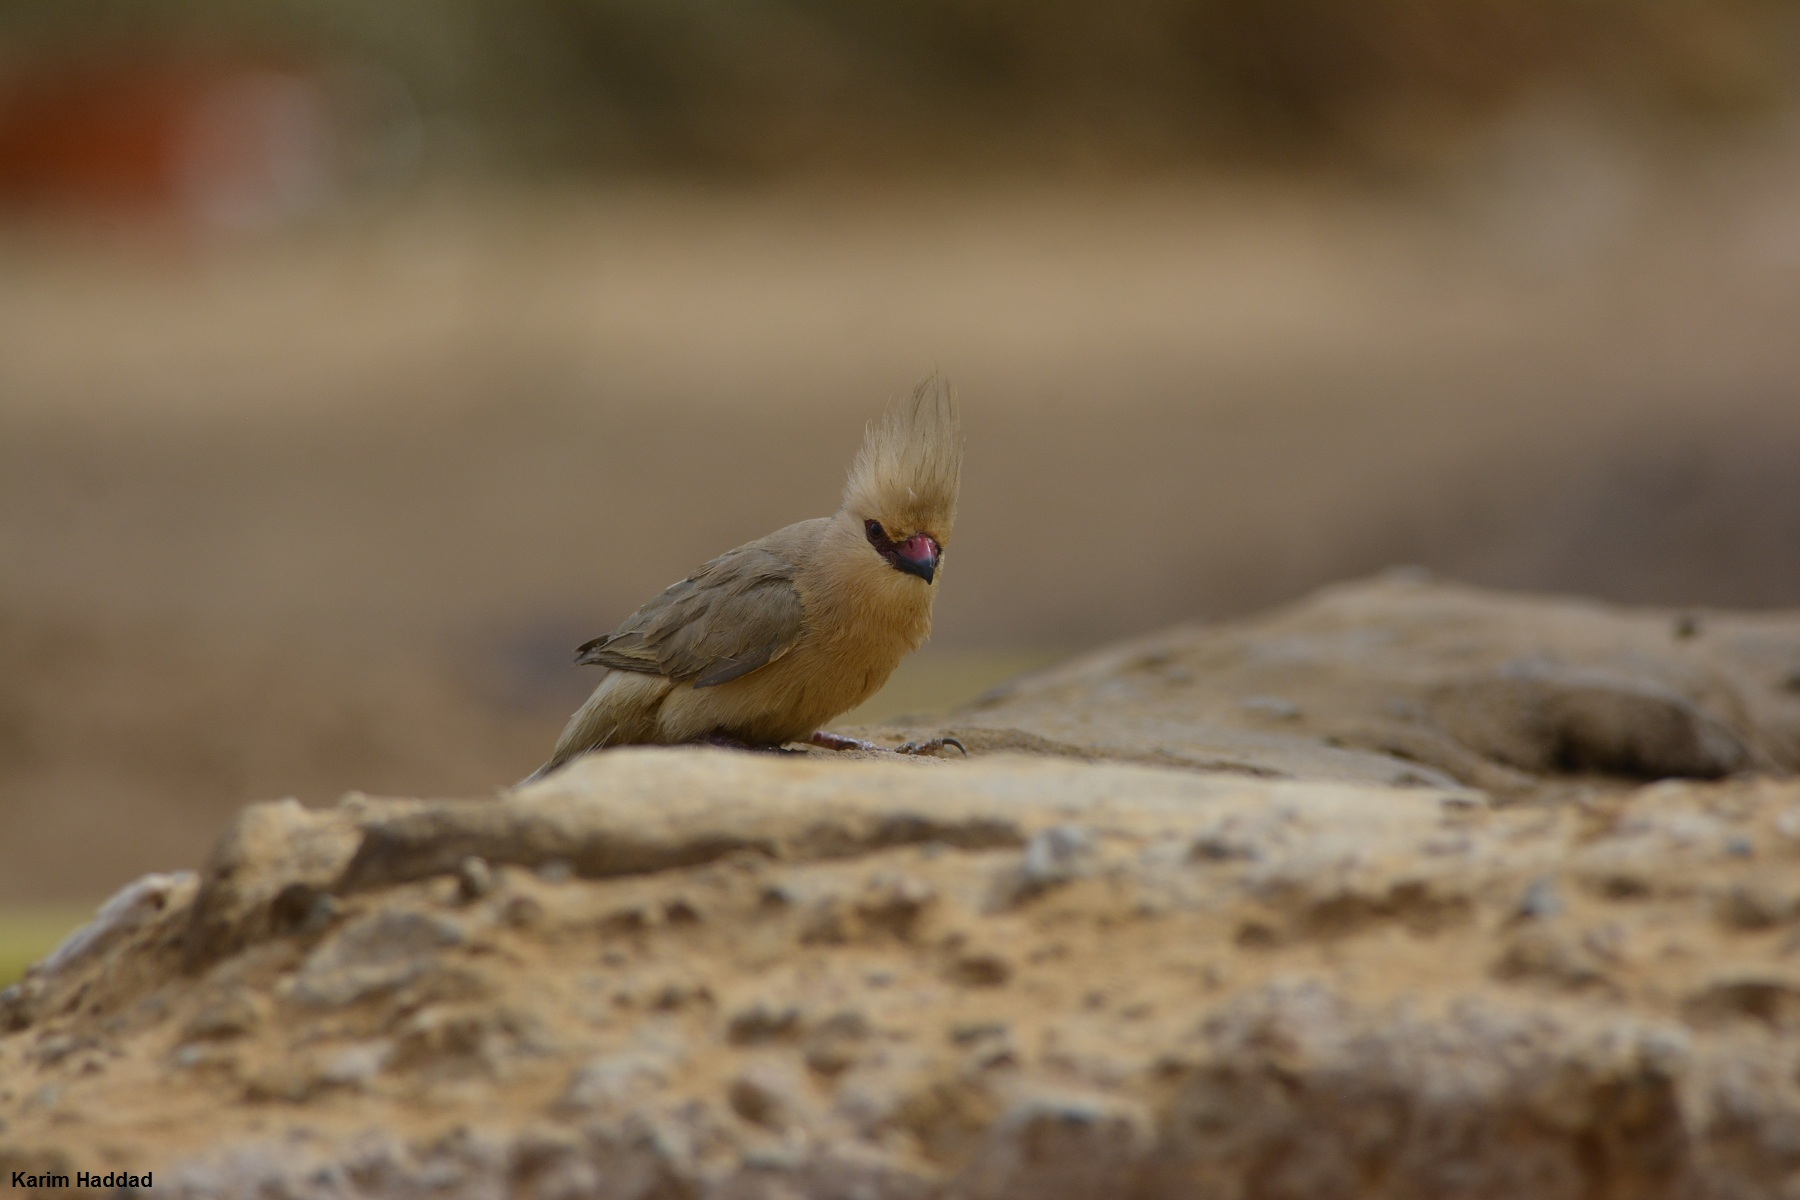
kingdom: Animalia
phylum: Chordata
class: Aves
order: Coliiformes
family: Coliidae
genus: Urocolius
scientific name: Urocolius macrourus
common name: Blue-naped mousebird
